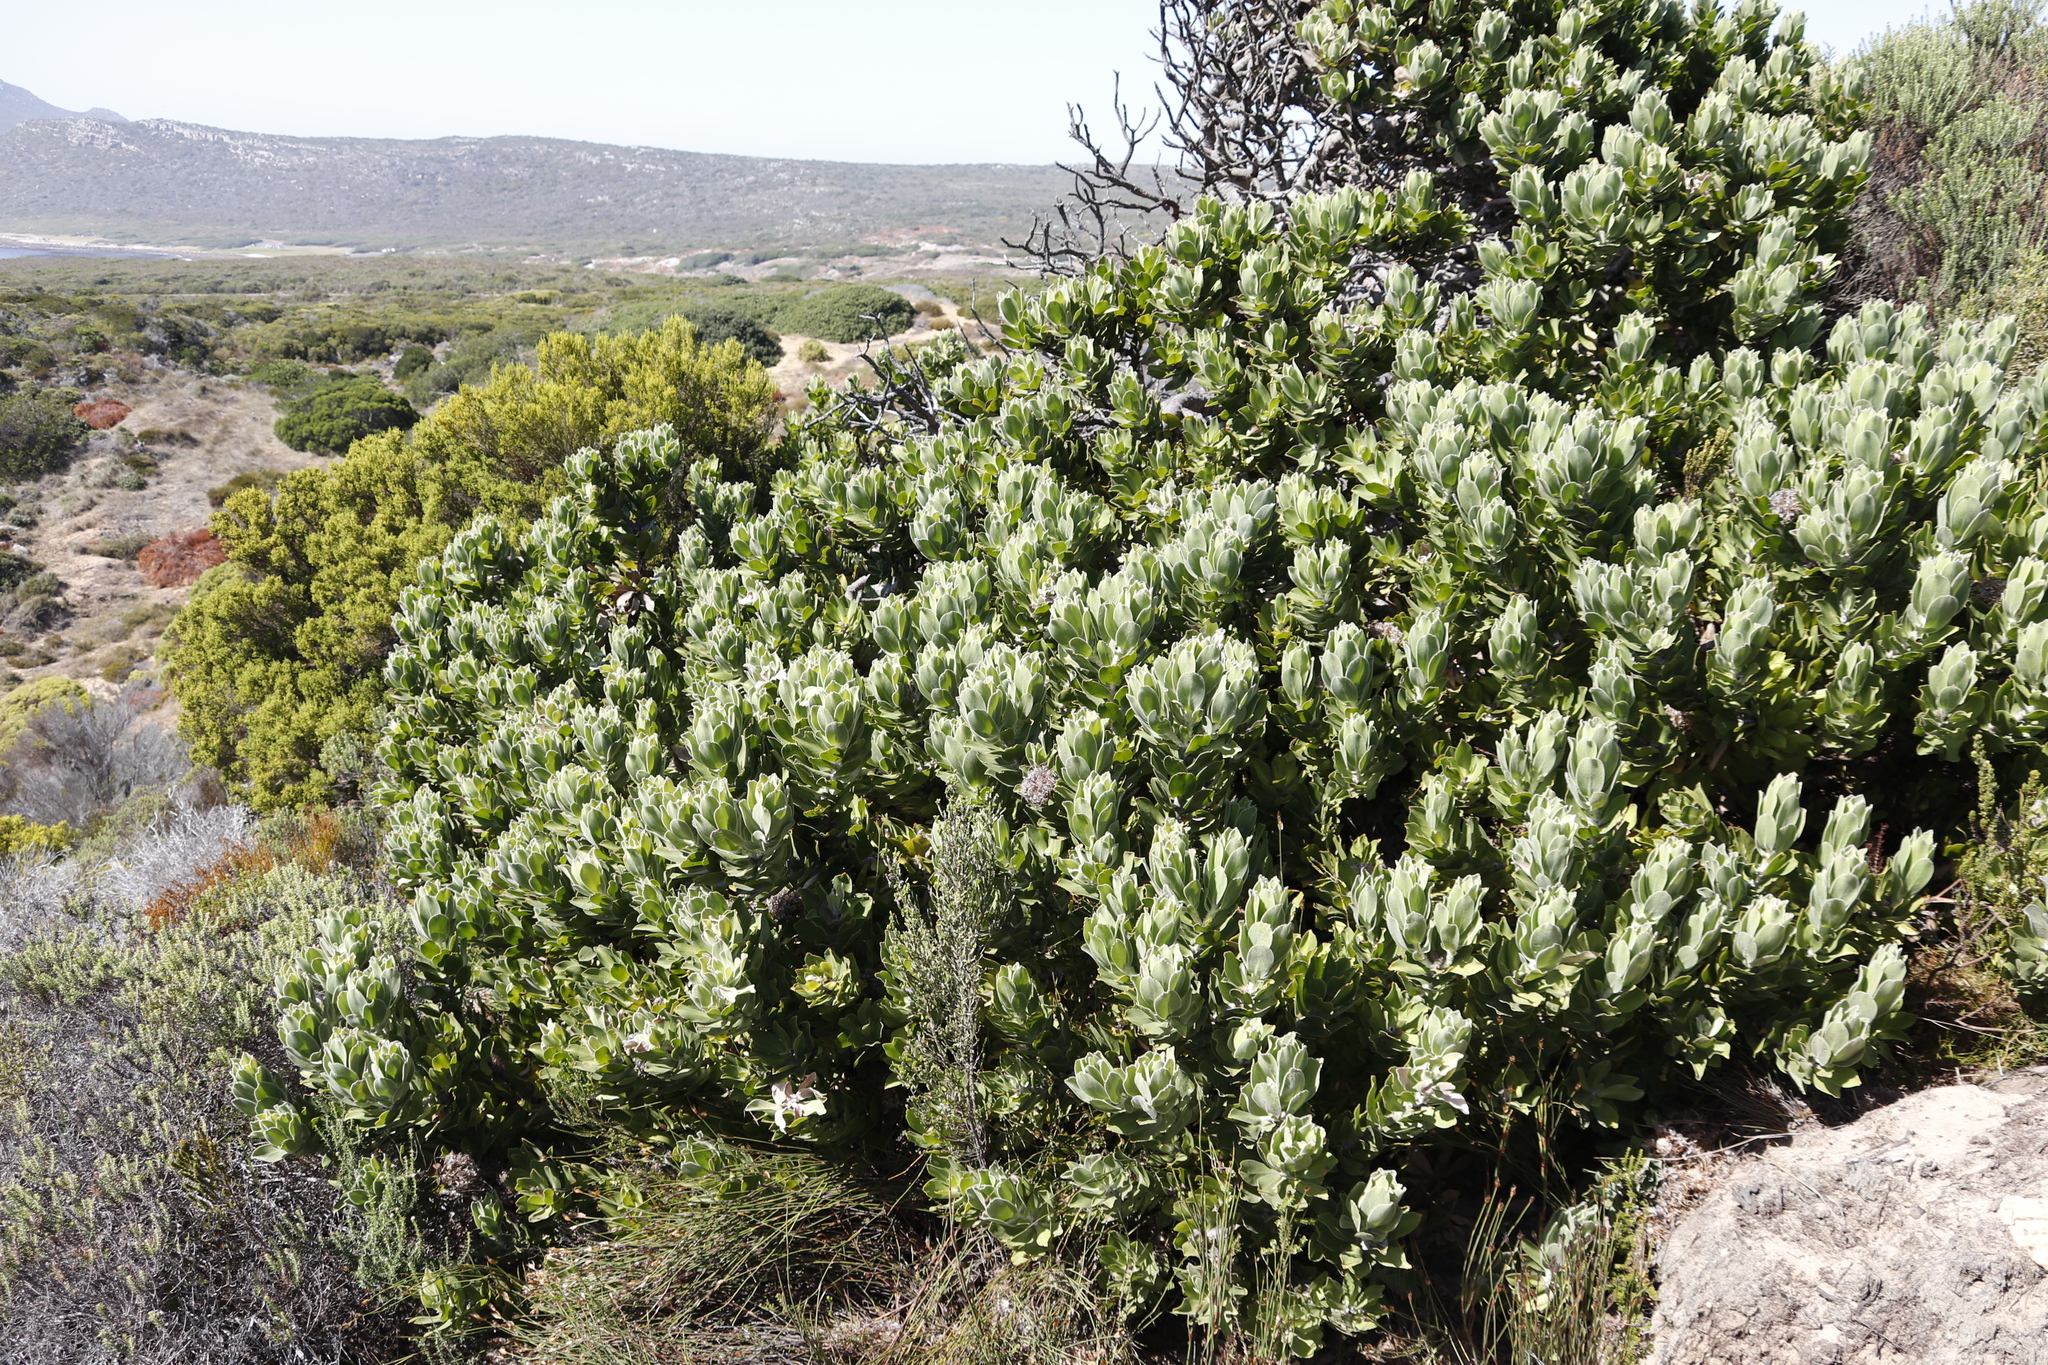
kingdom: Plantae
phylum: Tracheophyta
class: Magnoliopsida
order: Proteales
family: Proteaceae
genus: Leucospermum
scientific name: Leucospermum conocarpodendron
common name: Tree pincushion
